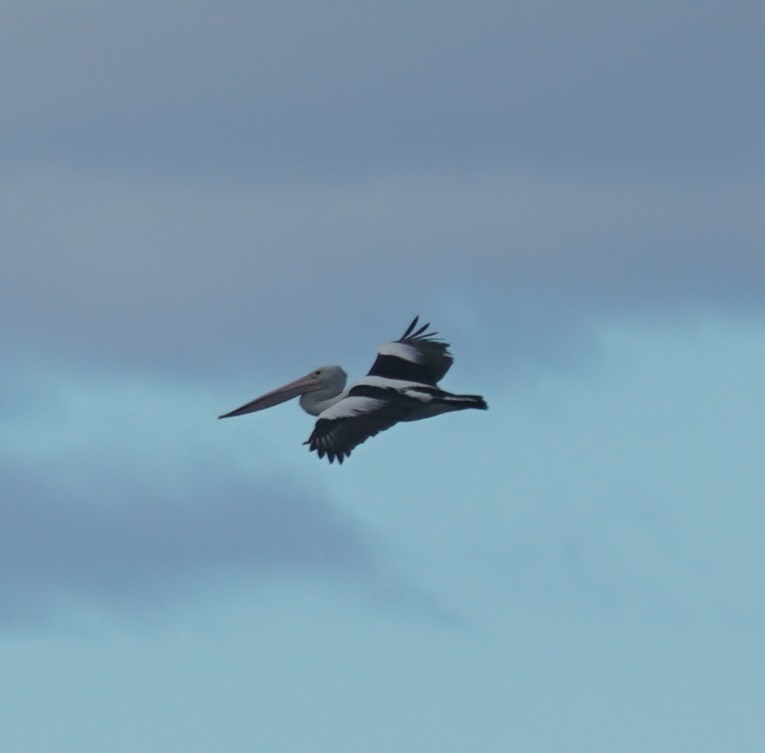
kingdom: Animalia
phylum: Chordata
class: Aves
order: Pelecaniformes
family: Pelecanidae
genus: Pelecanus
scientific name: Pelecanus conspicillatus
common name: Australian pelican
